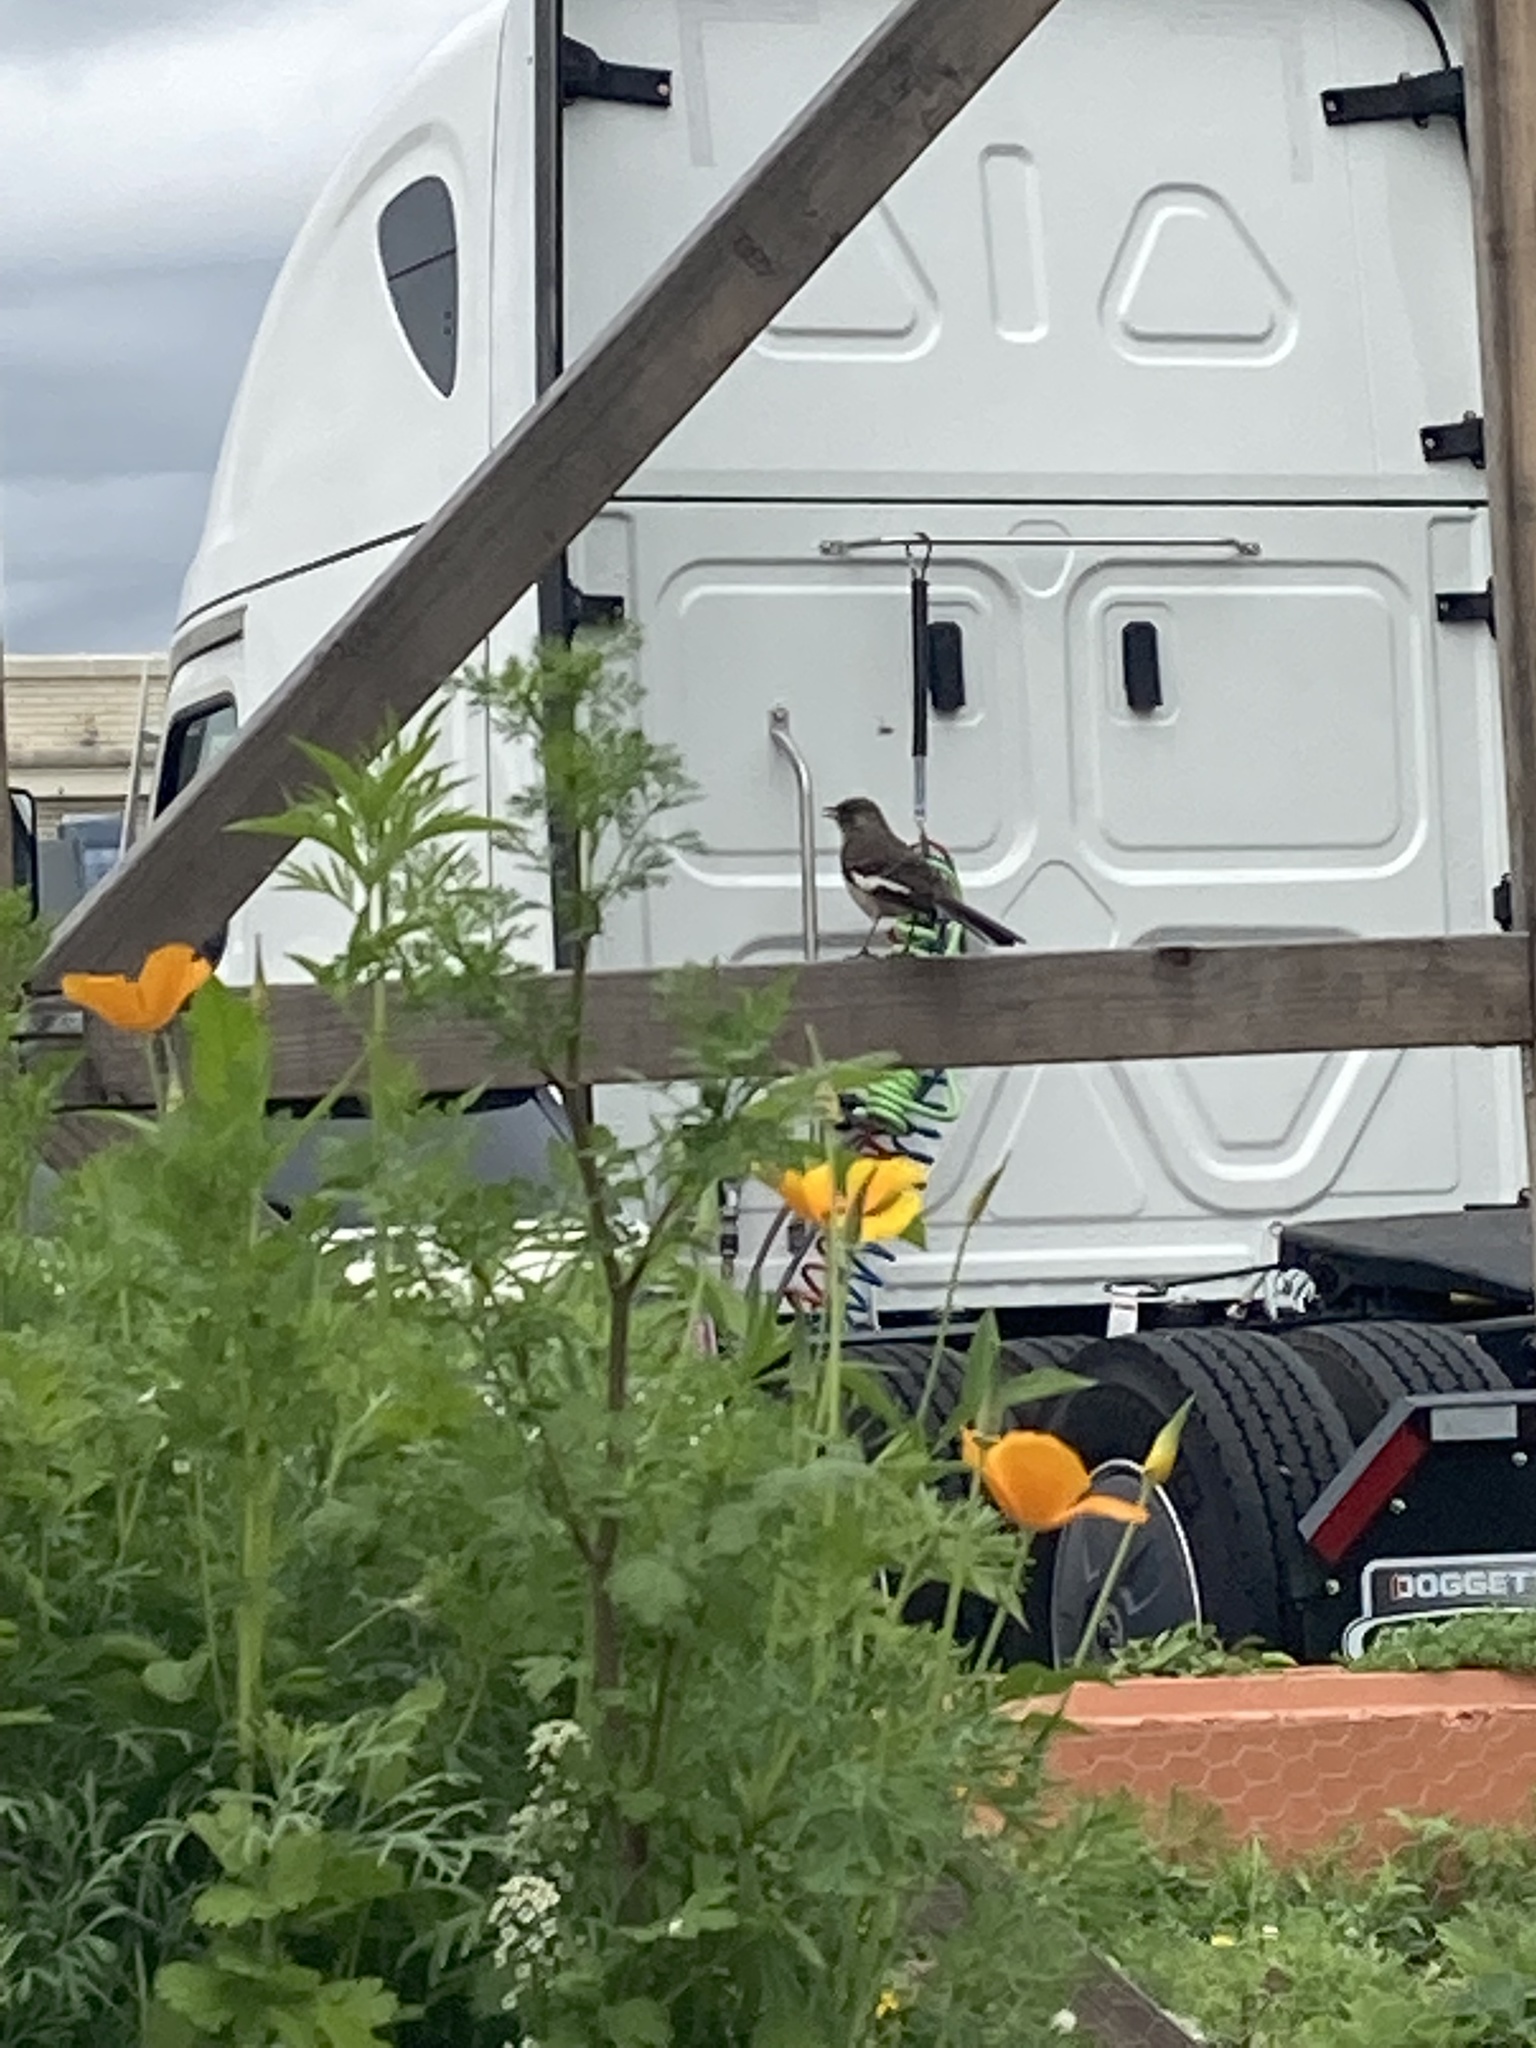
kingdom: Animalia
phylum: Chordata
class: Aves
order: Passeriformes
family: Mimidae
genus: Mimus
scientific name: Mimus polyglottos
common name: Northern mockingbird
